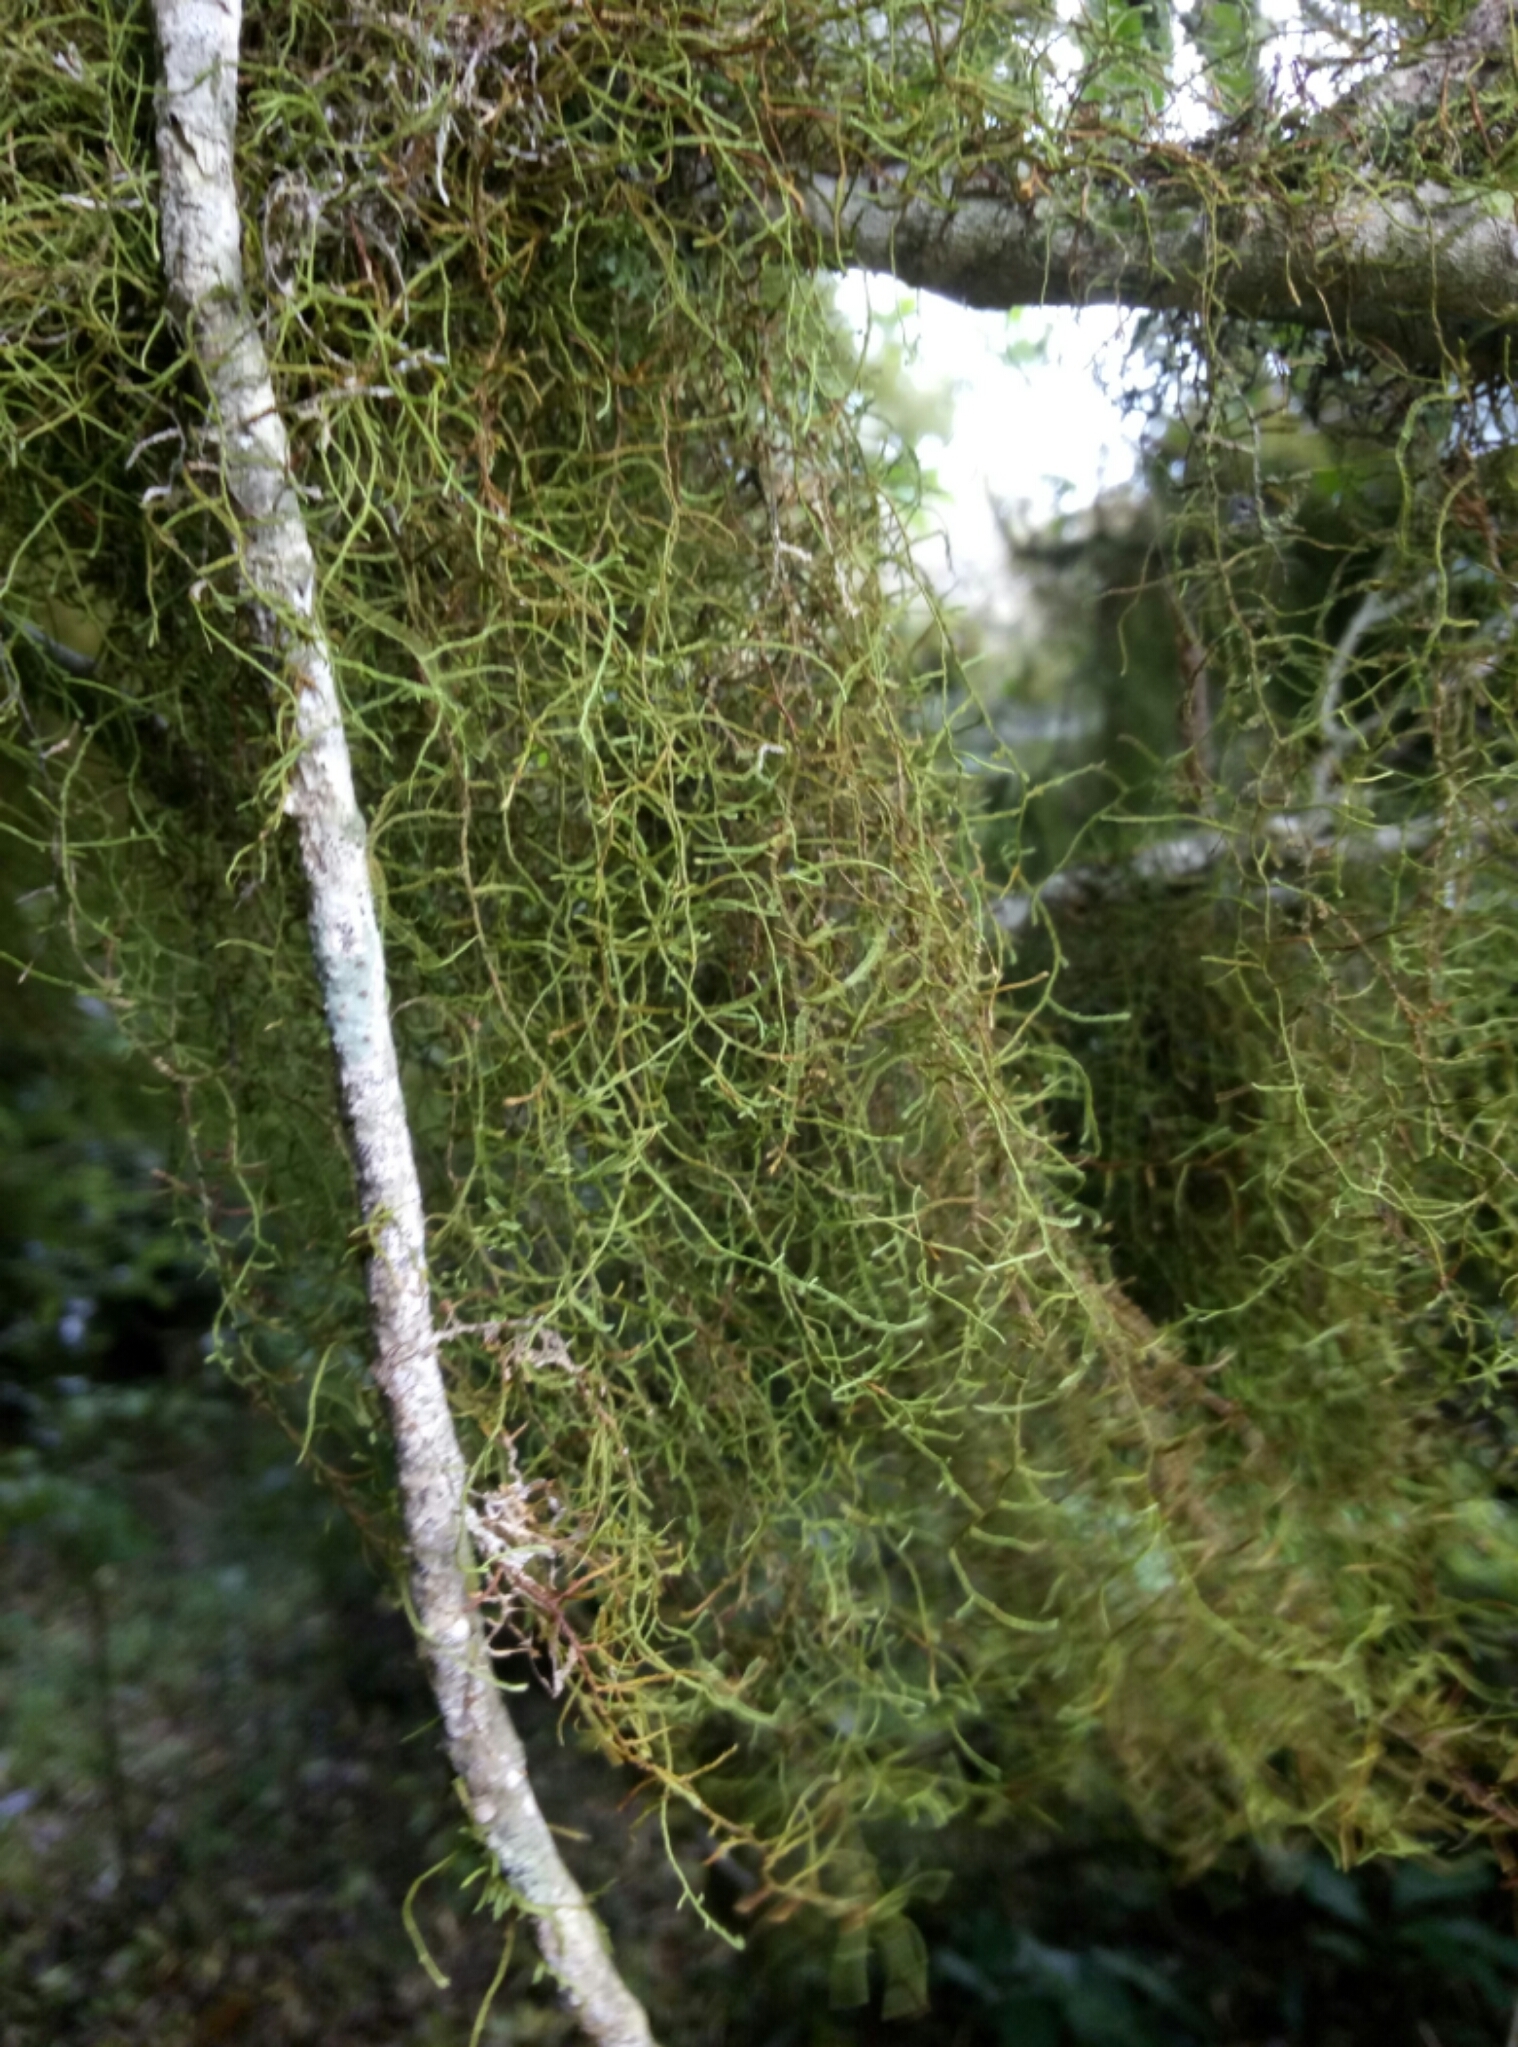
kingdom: Plantae
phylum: Bryophyta
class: Bryopsida
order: Hypnales
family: Lembophyllaceae
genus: Weymouthia
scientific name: Weymouthia mollis
